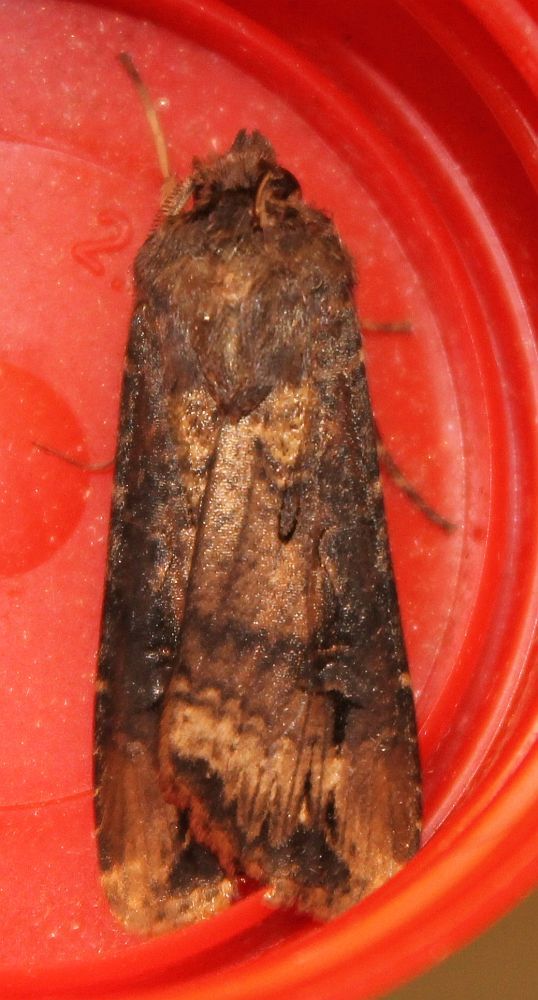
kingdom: Animalia
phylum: Arthropoda
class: Insecta
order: Lepidoptera
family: Noctuidae
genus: Agrotis
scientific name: Agrotis ipsilon
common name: Dark sword-grass
